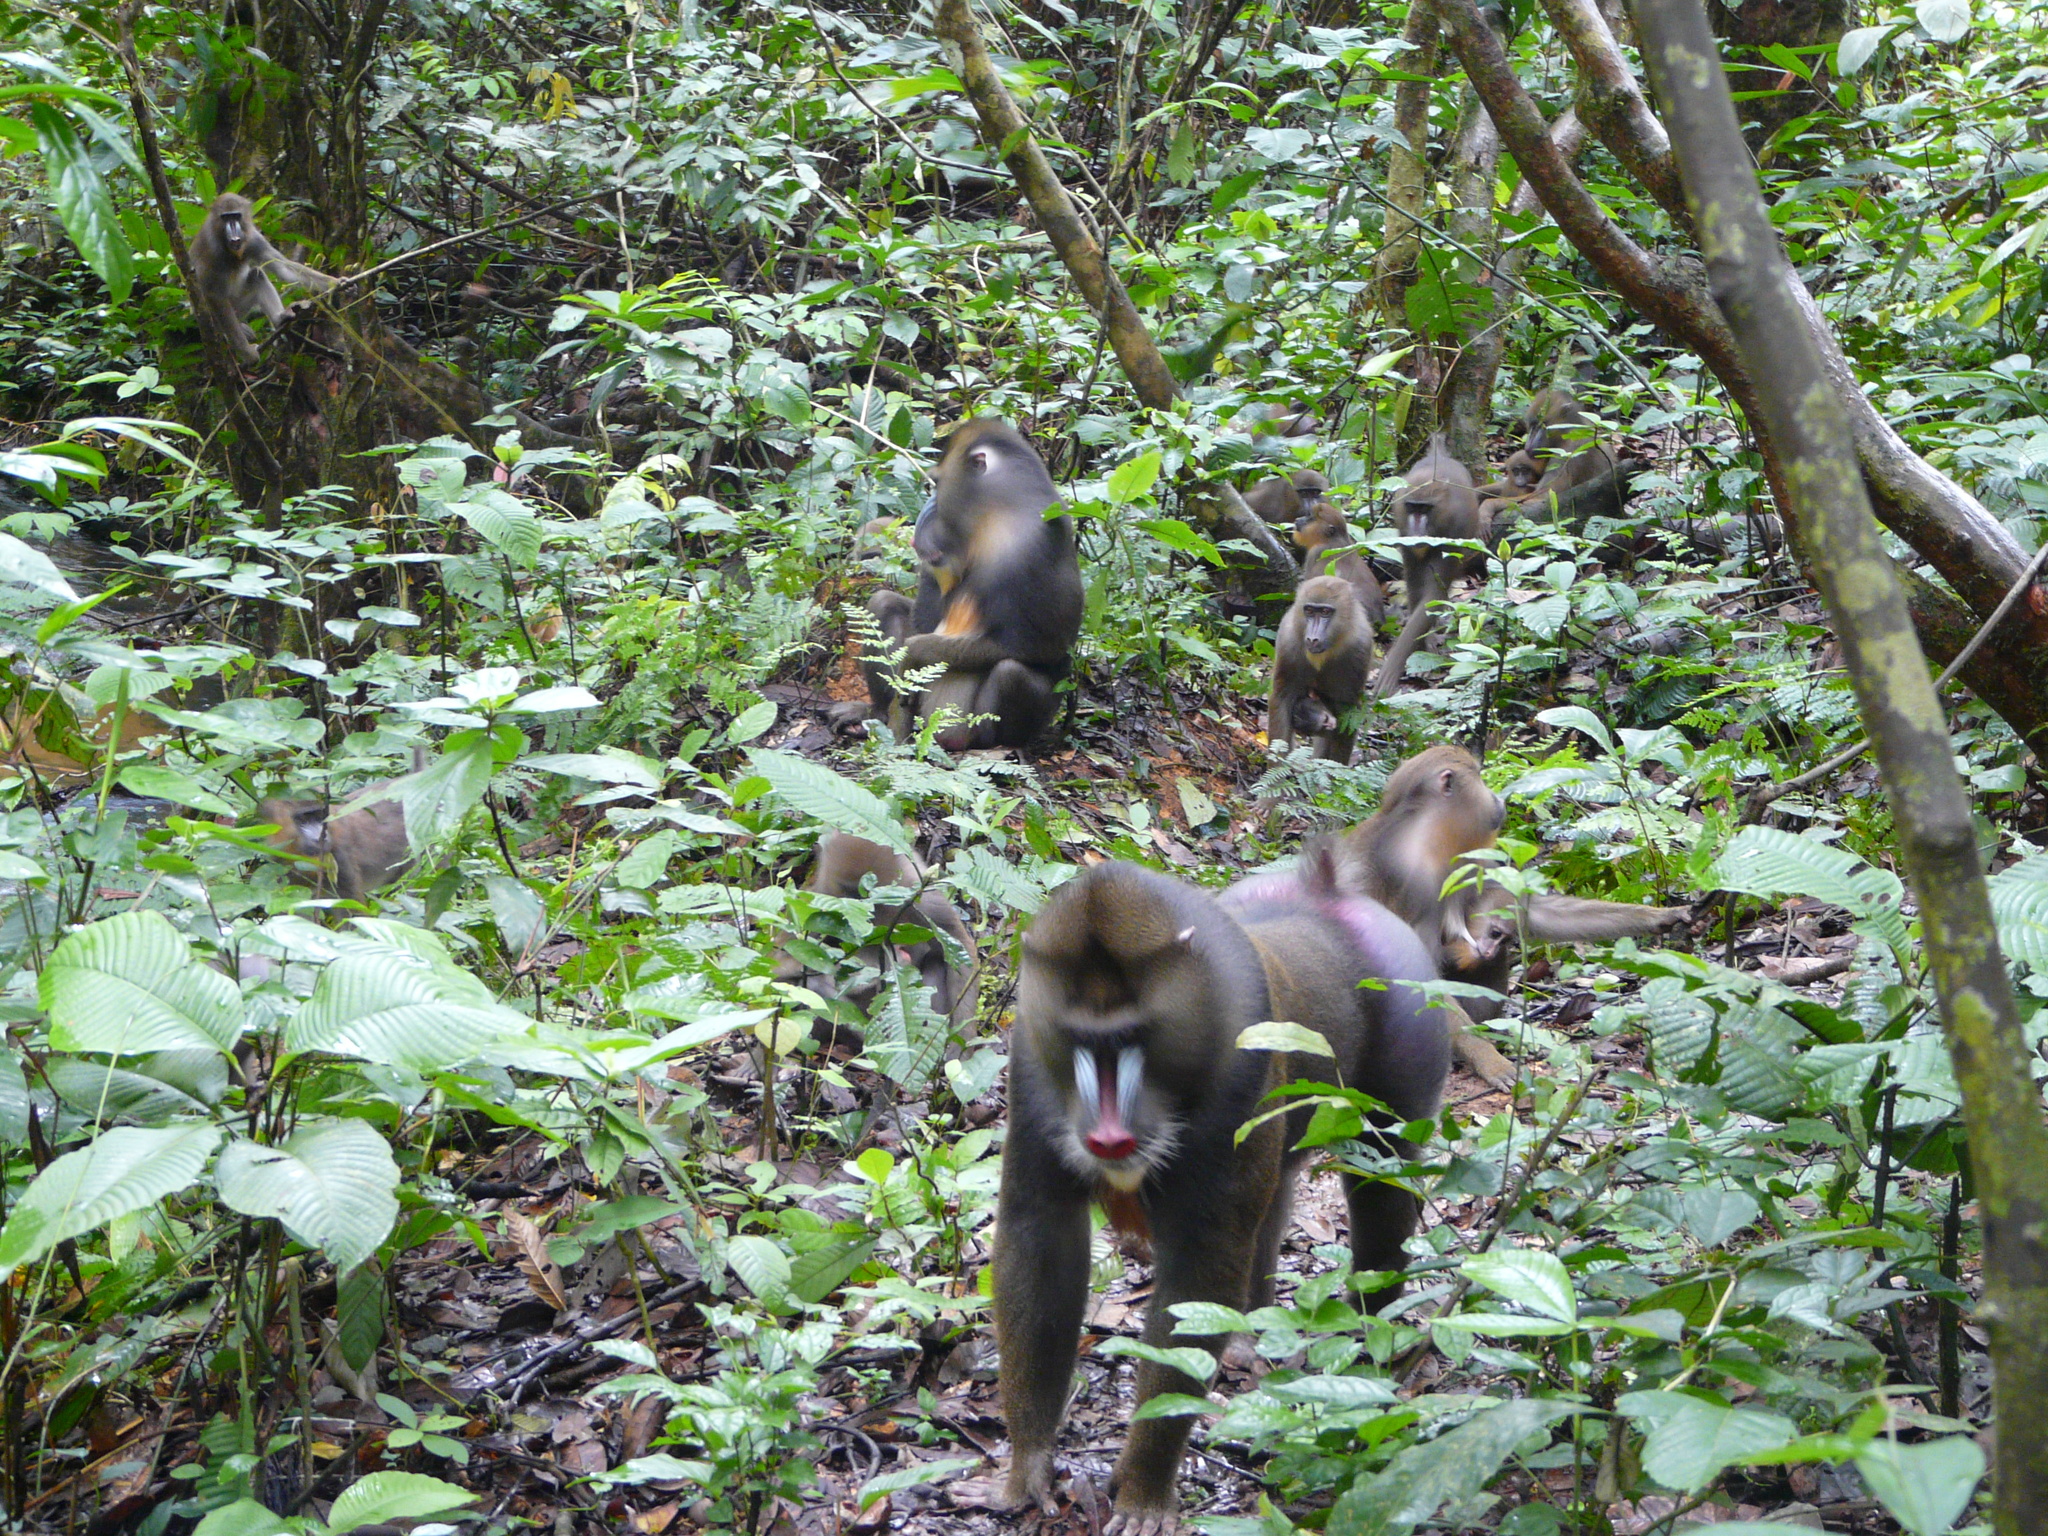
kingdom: Animalia
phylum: Chordata
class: Mammalia
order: Primates
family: Cercopithecidae
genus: Mandrillus
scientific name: Mandrillus sphinx
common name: Mandrill
